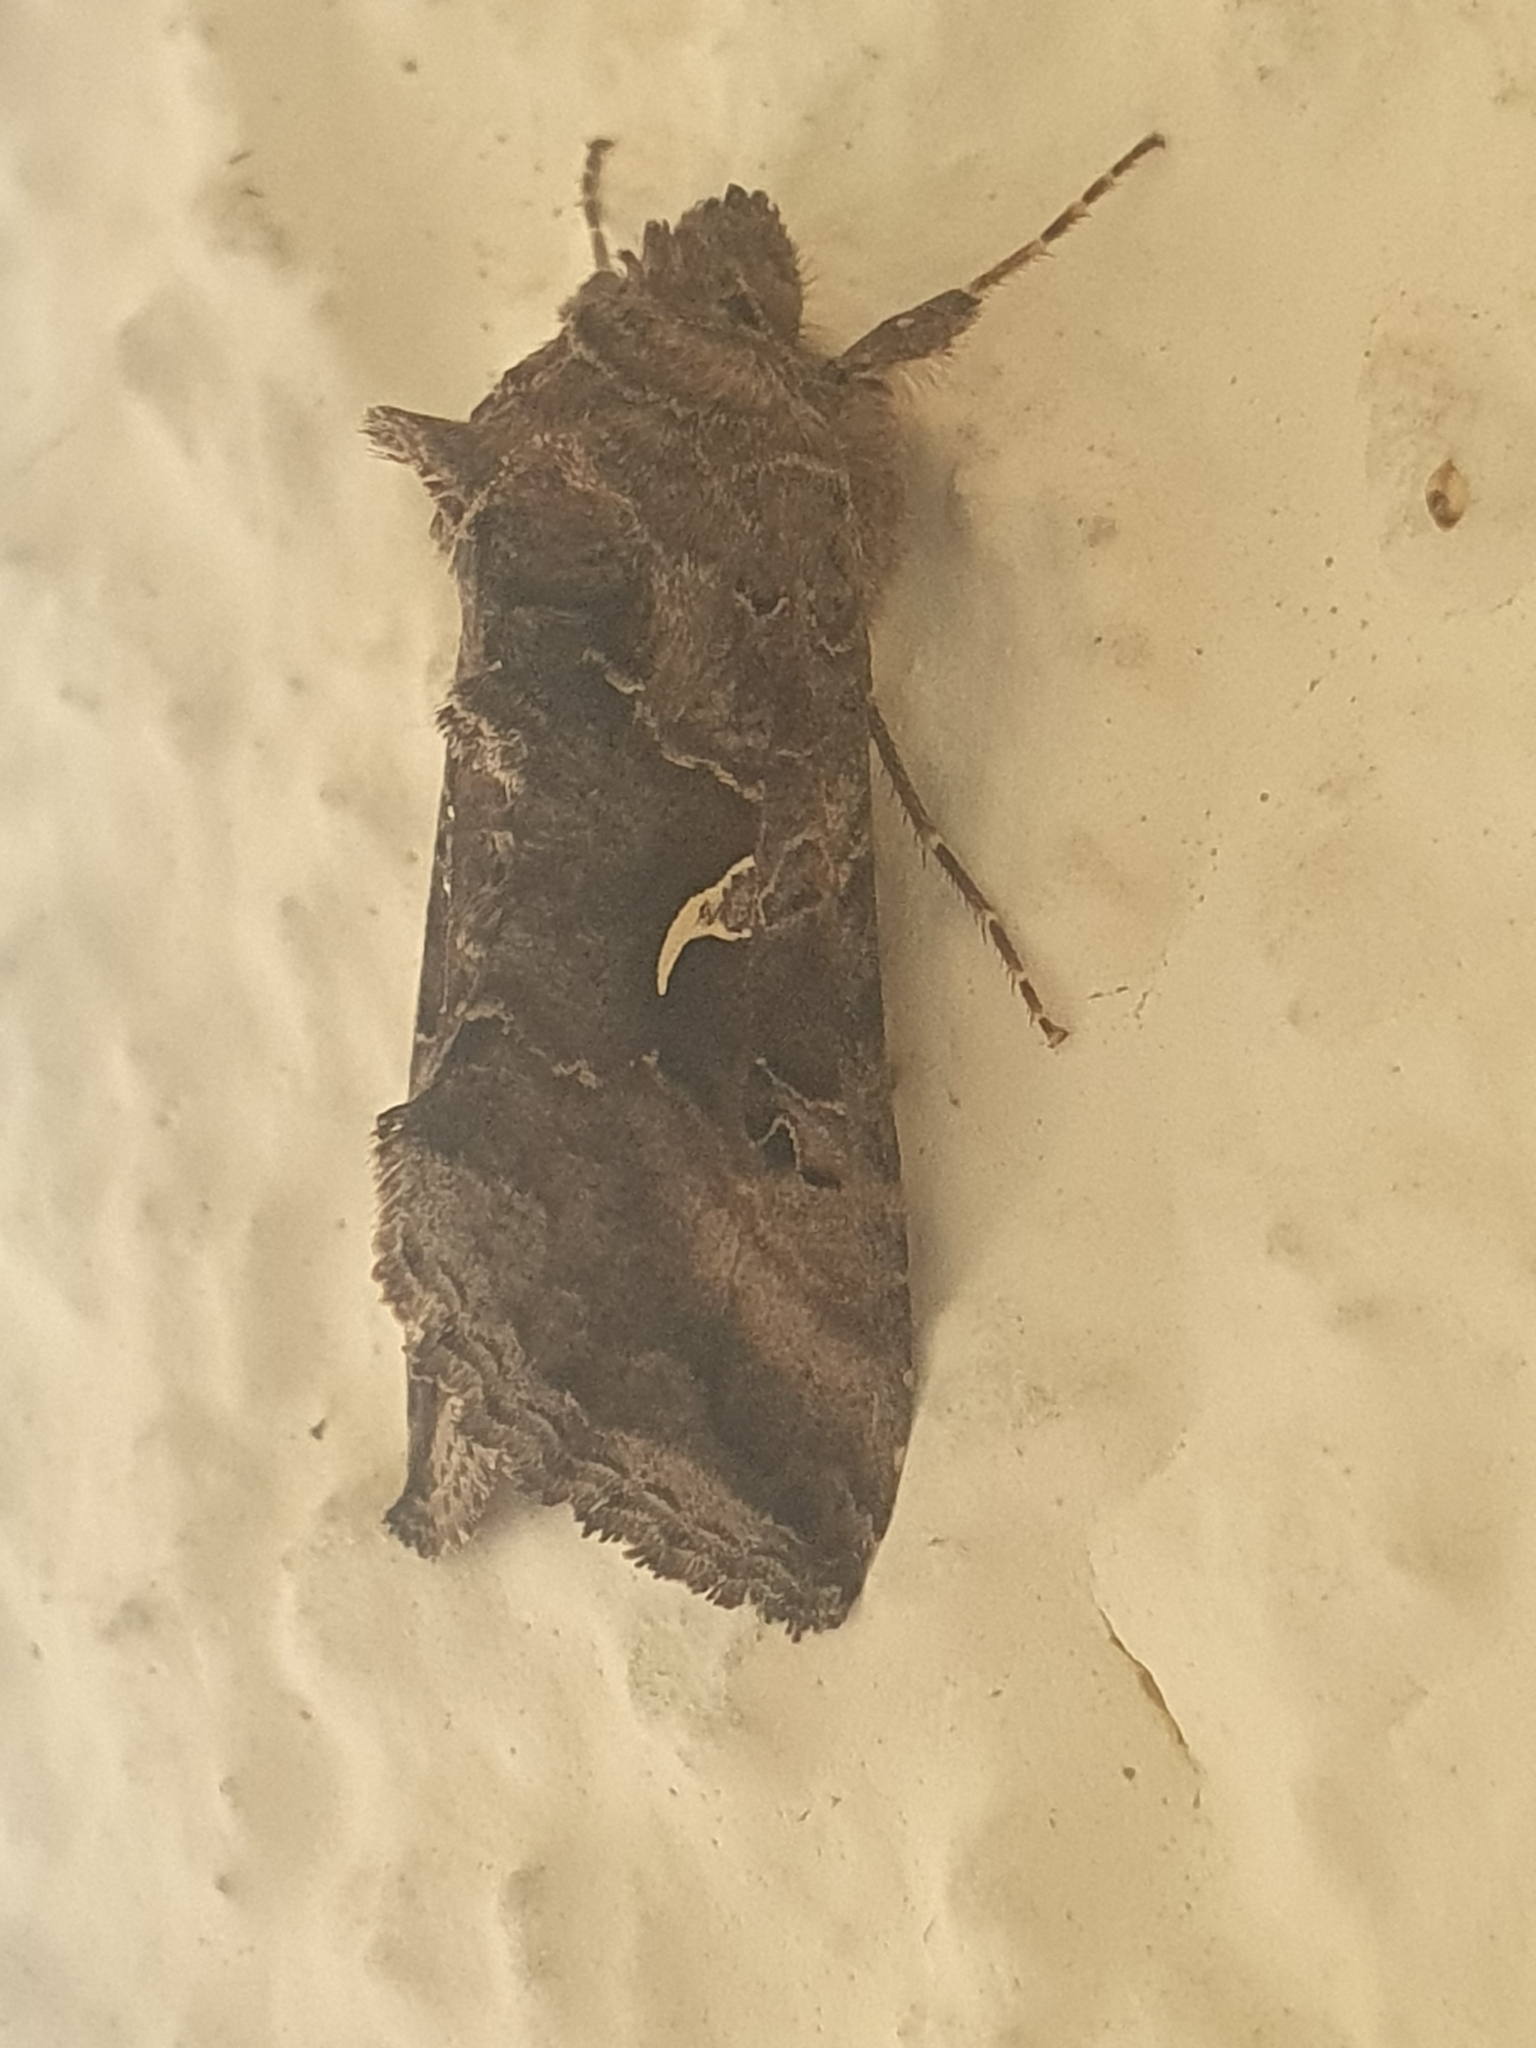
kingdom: Animalia
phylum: Arthropoda
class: Insecta
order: Lepidoptera
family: Noctuidae
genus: Autographa
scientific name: Autographa gamma
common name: Silver y
